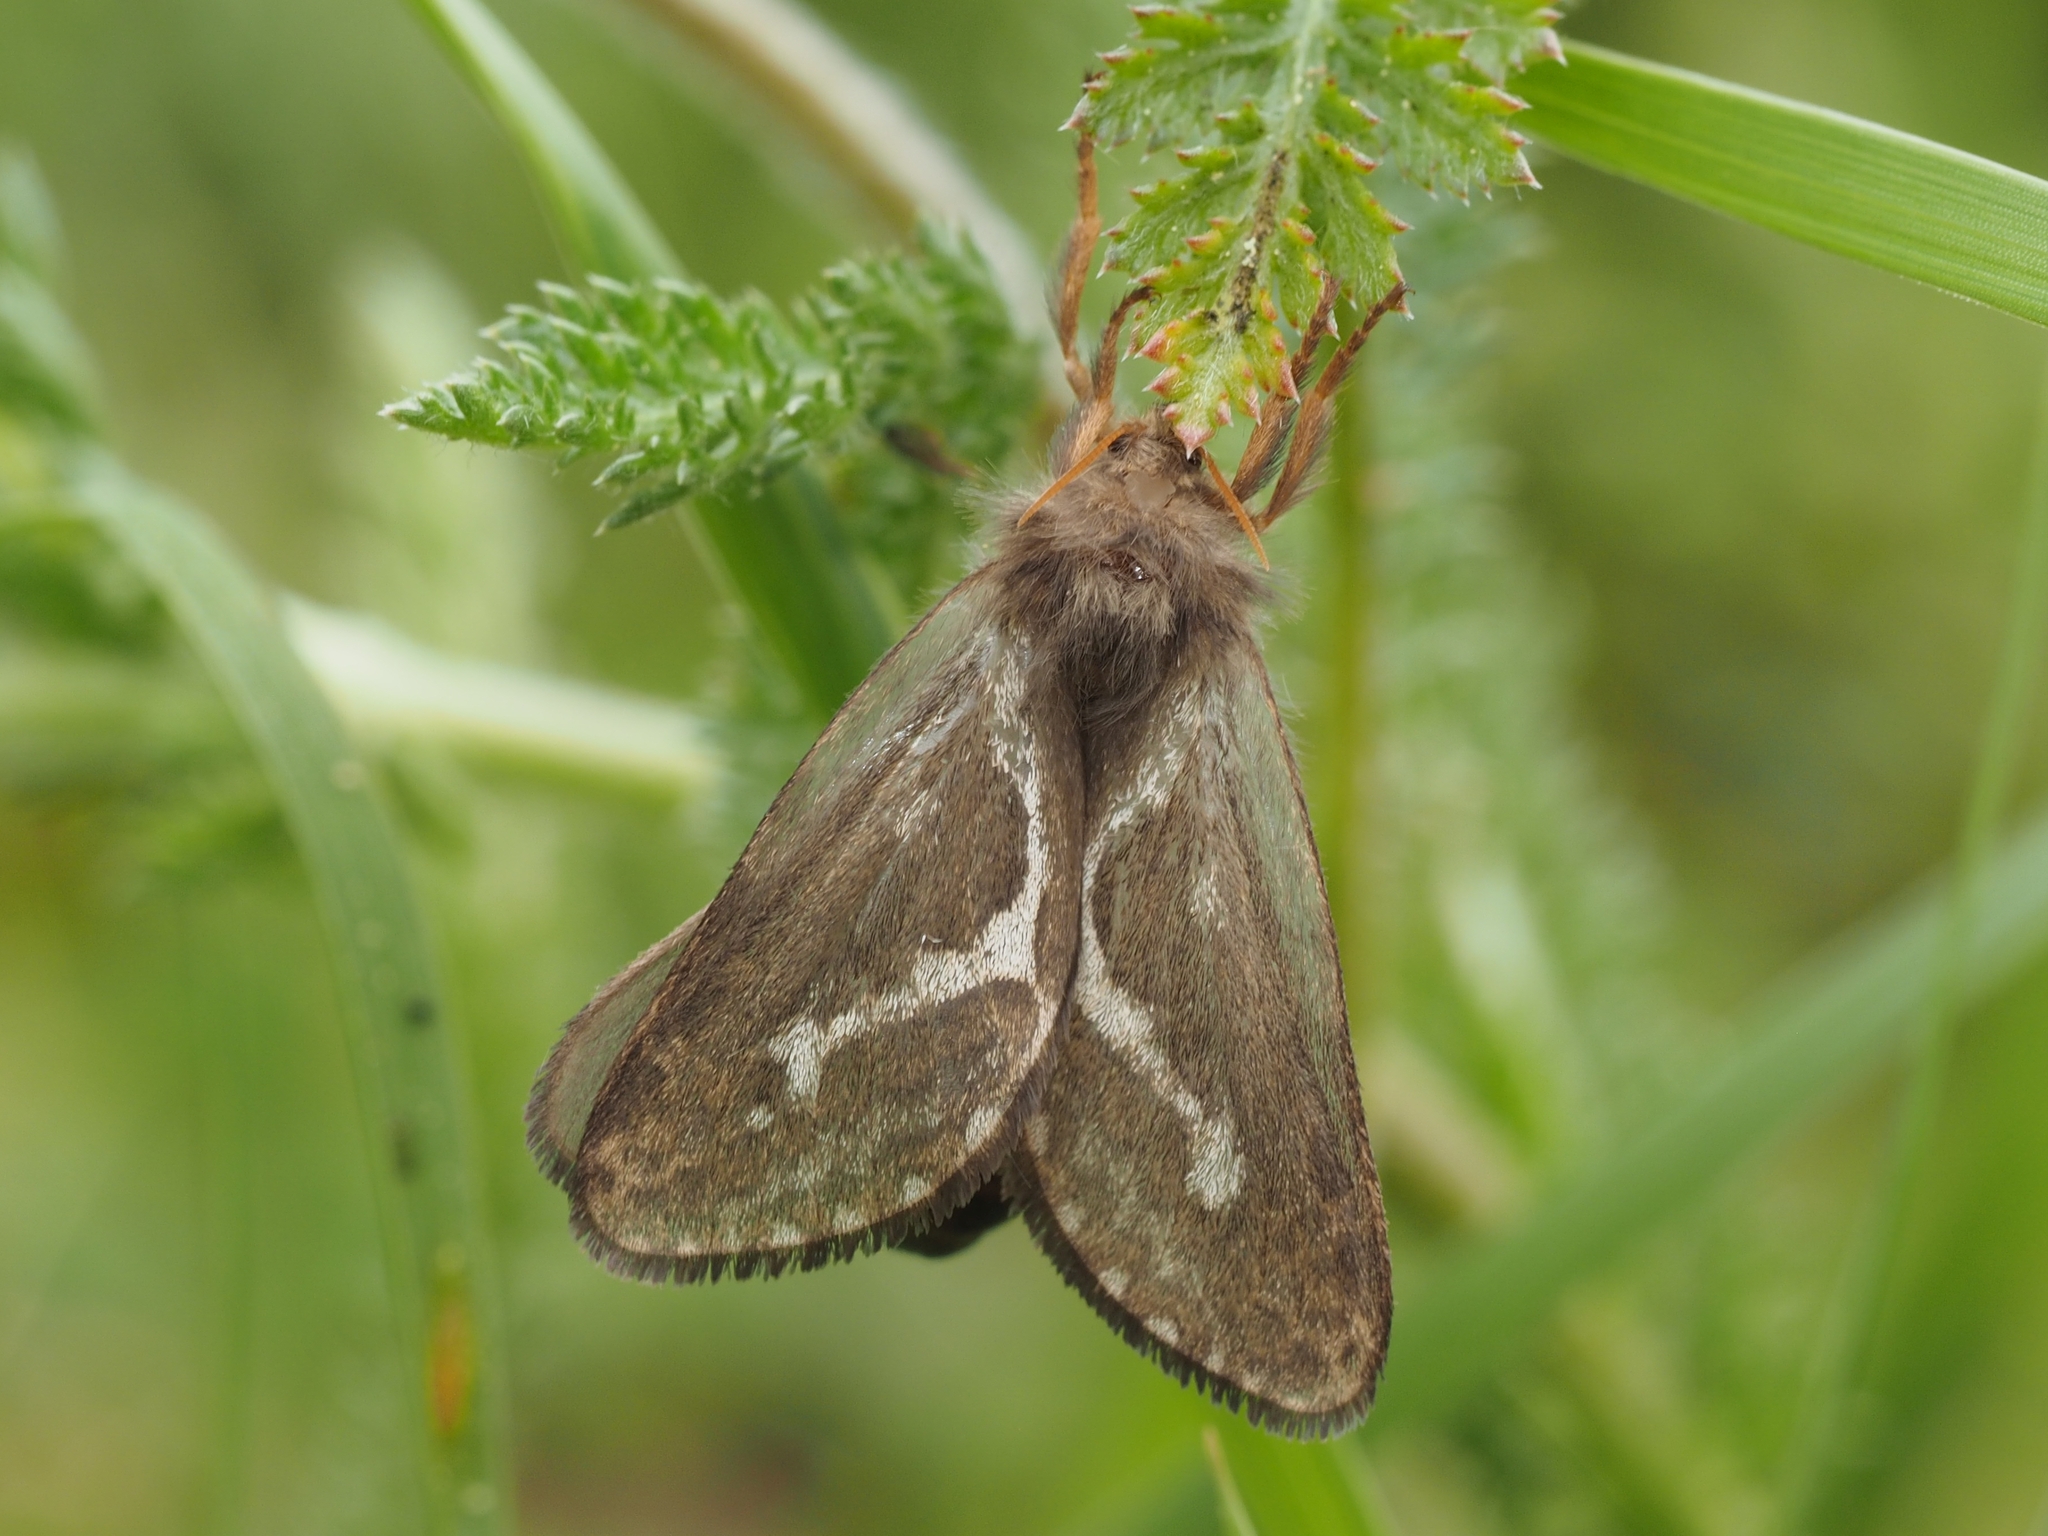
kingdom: Animalia
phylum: Arthropoda
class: Insecta
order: Lepidoptera
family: Hepialidae
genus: Korscheltellus
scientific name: Korscheltellus lupulina
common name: Common swift
